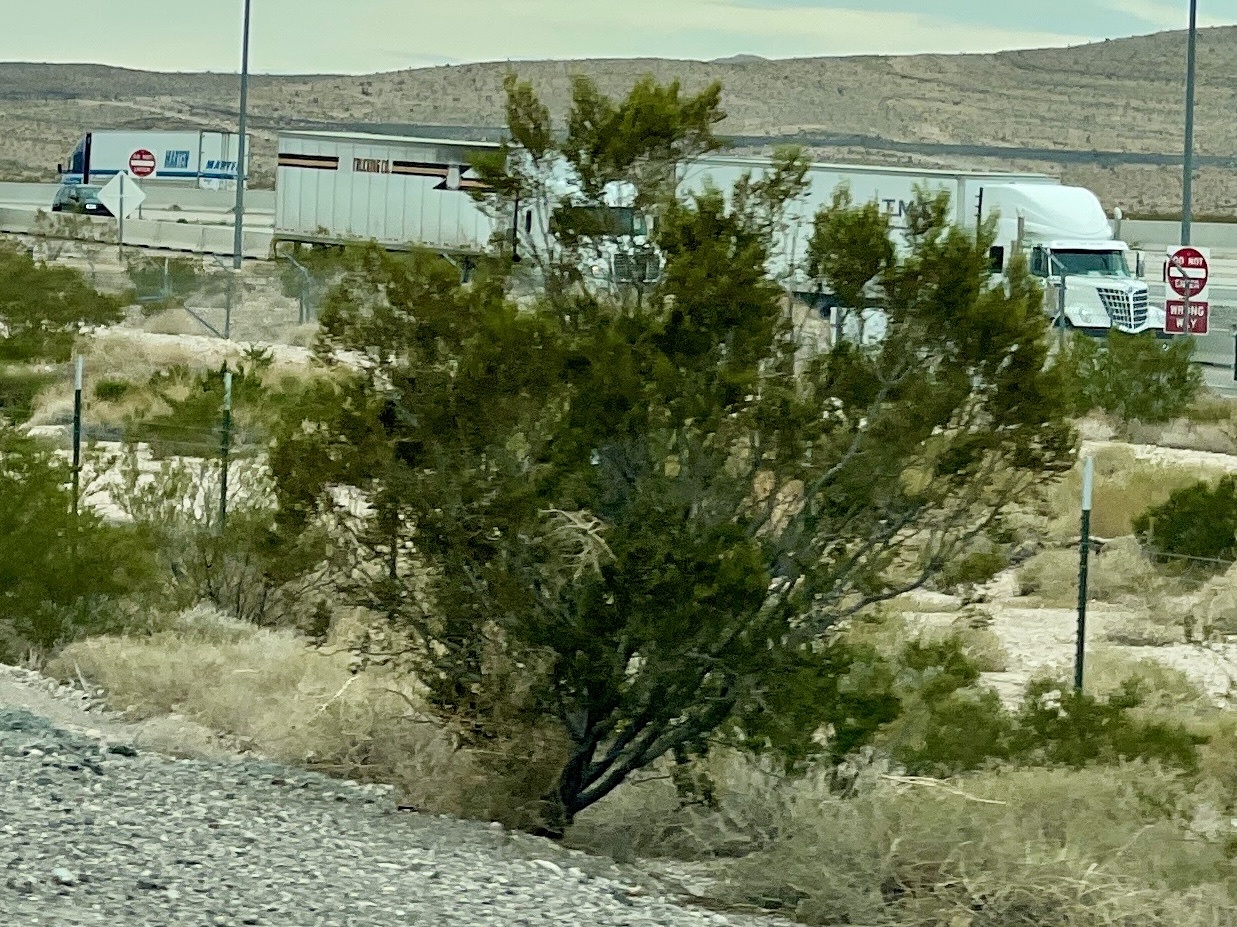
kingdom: Plantae
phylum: Tracheophyta
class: Magnoliopsida
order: Zygophyllales
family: Zygophyllaceae
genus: Larrea
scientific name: Larrea tridentata
